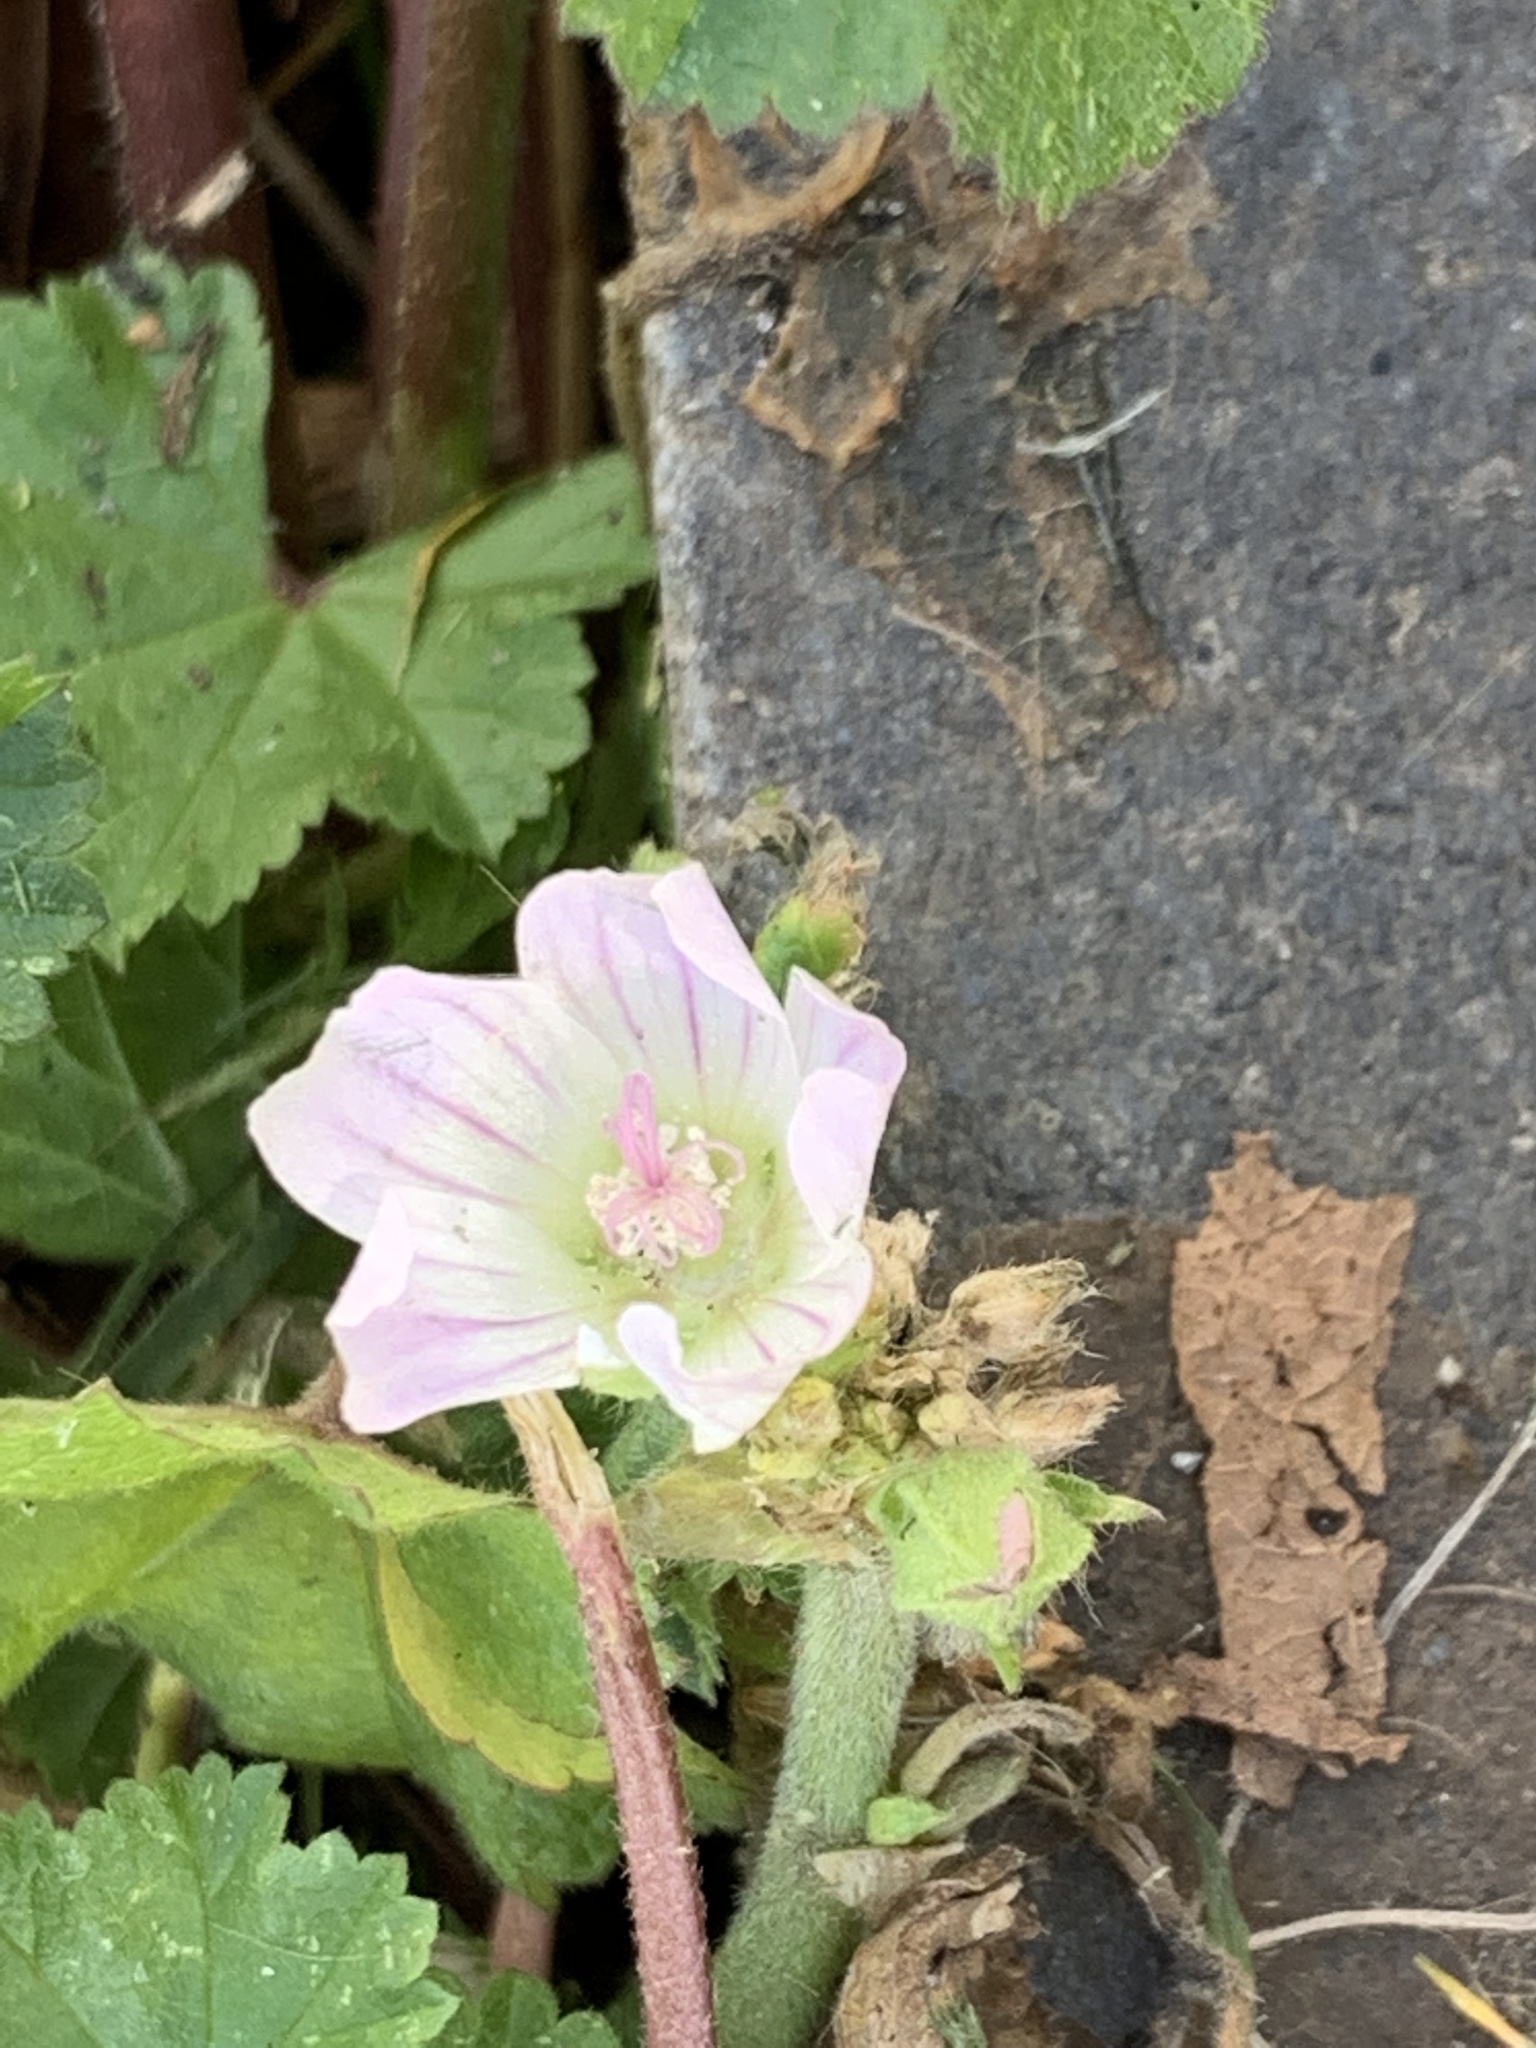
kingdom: Plantae
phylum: Tracheophyta
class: Magnoliopsida
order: Malvales
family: Malvaceae
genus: Malva
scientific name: Malva neglecta
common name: Common mallow
